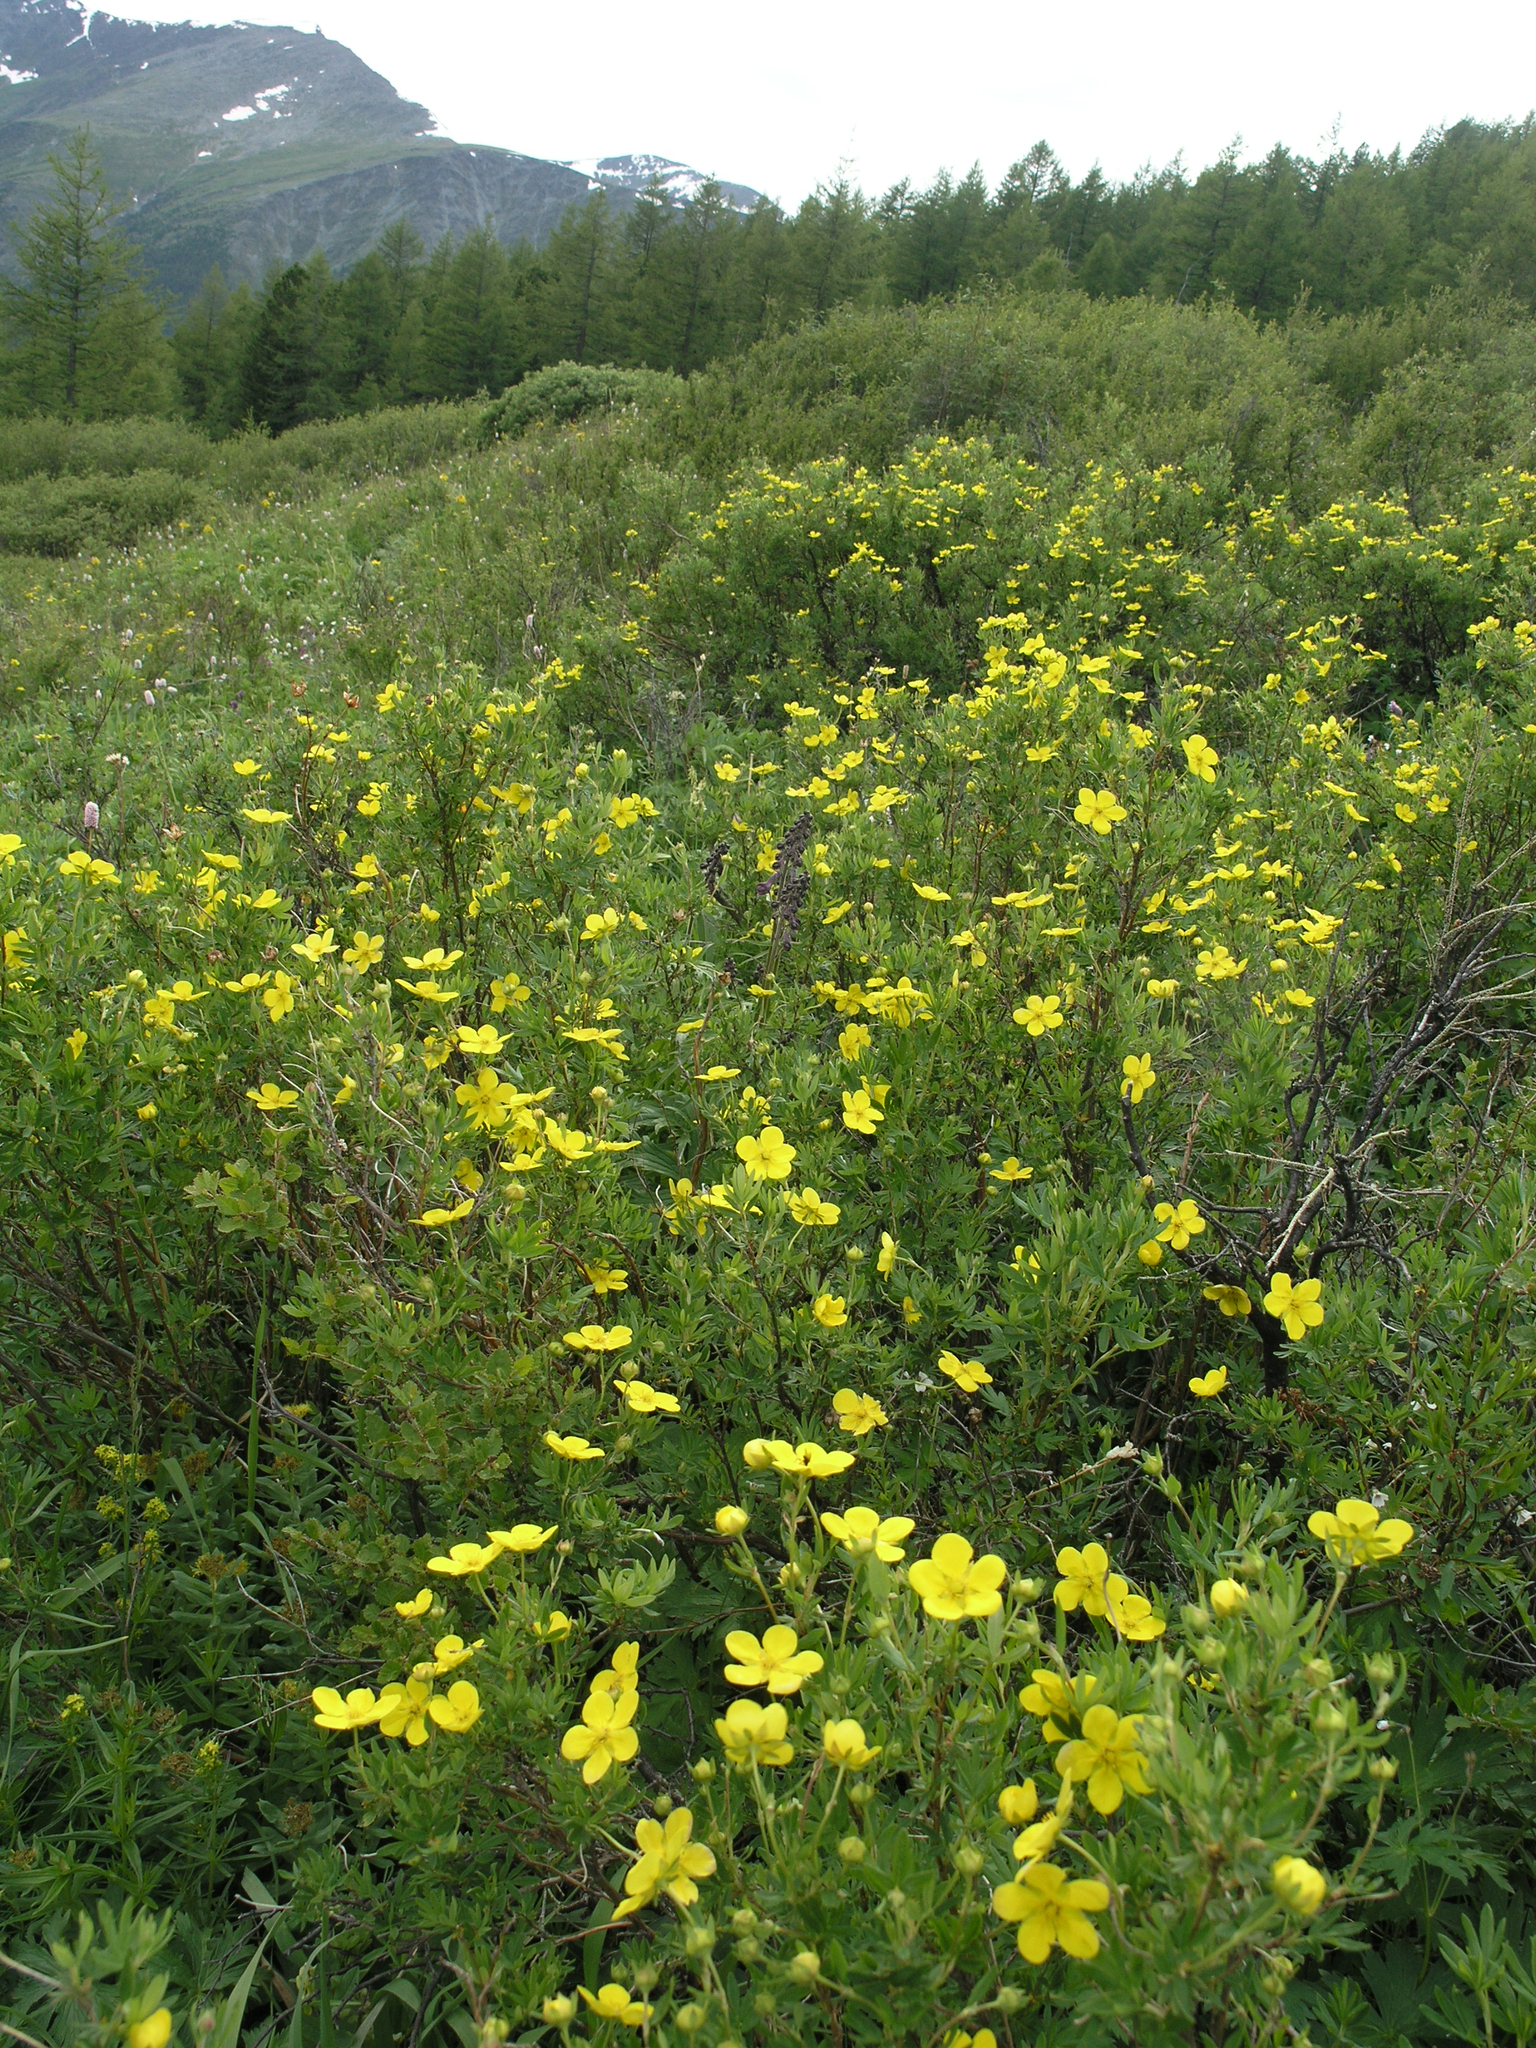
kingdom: Plantae
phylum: Tracheophyta
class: Magnoliopsida
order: Rosales
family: Rosaceae
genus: Dasiphora
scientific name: Dasiphora fruticosa
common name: Shrubby cinquefoil
